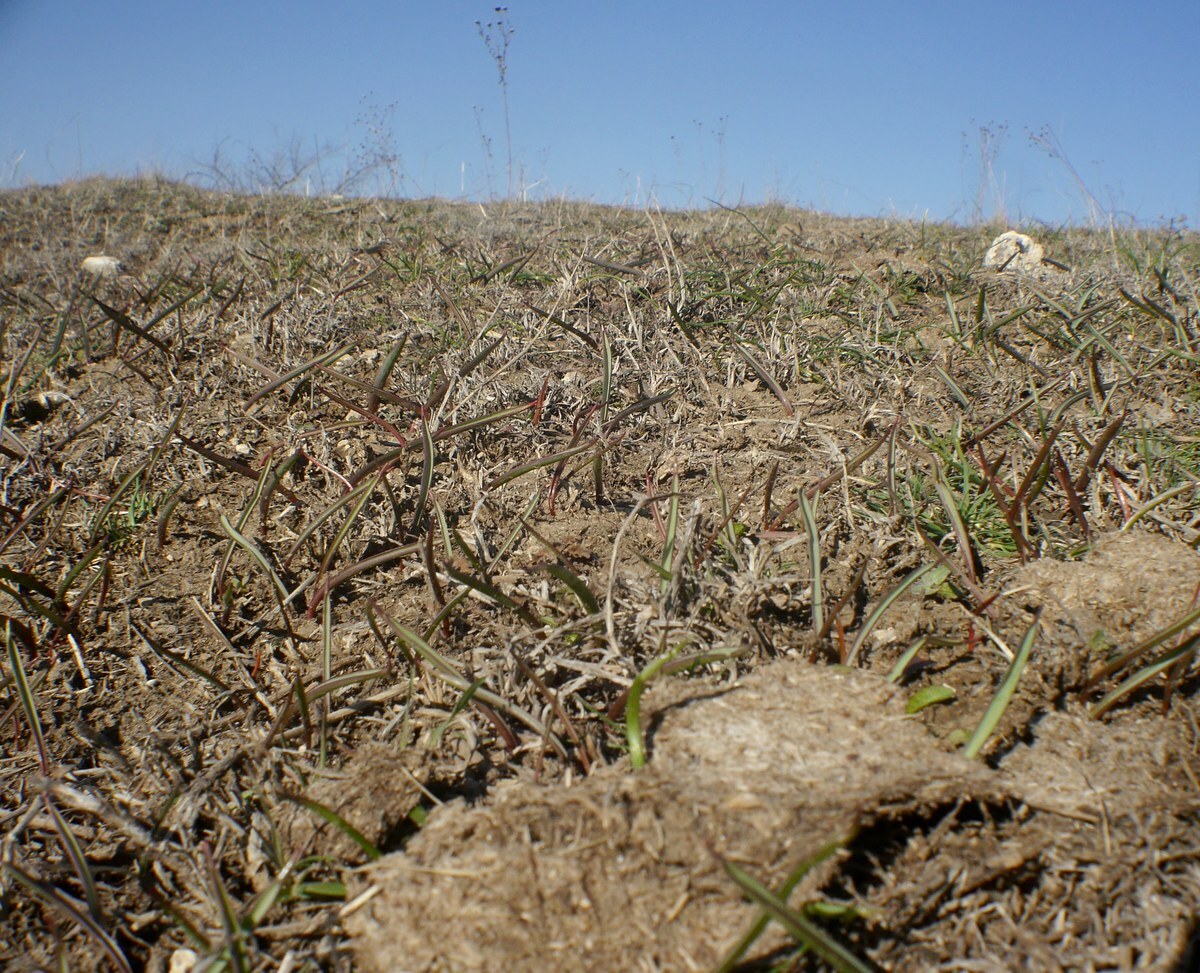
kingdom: Plantae
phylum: Tracheophyta
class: Liliopsida
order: Liliales
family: Liliaceae
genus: Tulipa
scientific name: Tulipa sylvestris
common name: Wild tulip
